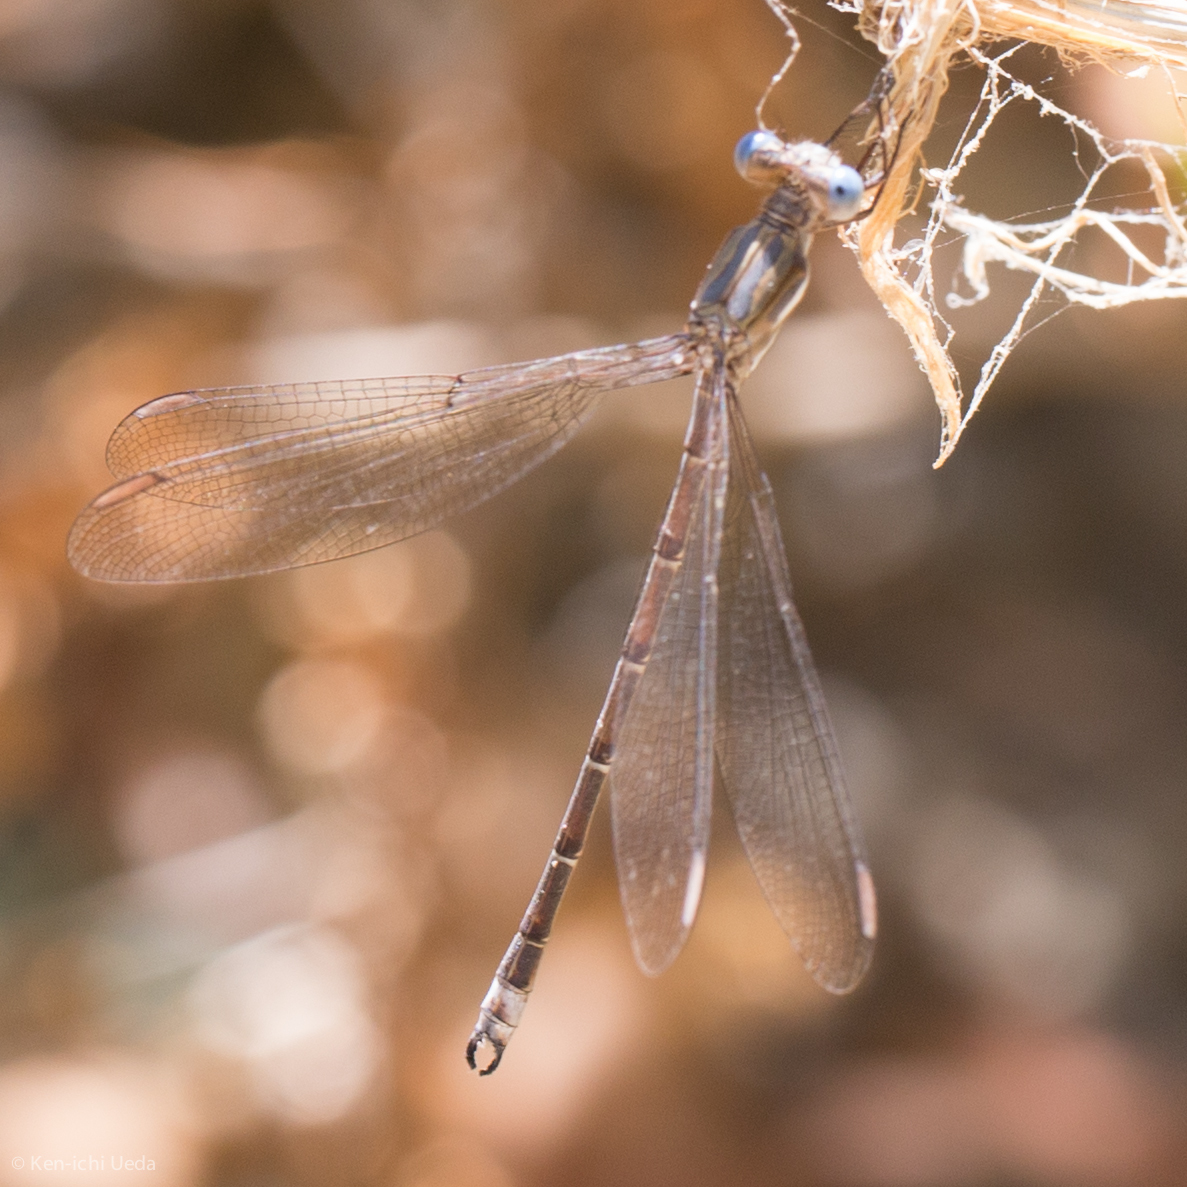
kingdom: Animalia
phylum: Arthropoda
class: Insecta
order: Odonata
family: Lestidae
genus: Archilestes
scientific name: Archilestes californicus
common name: California spreadwing
